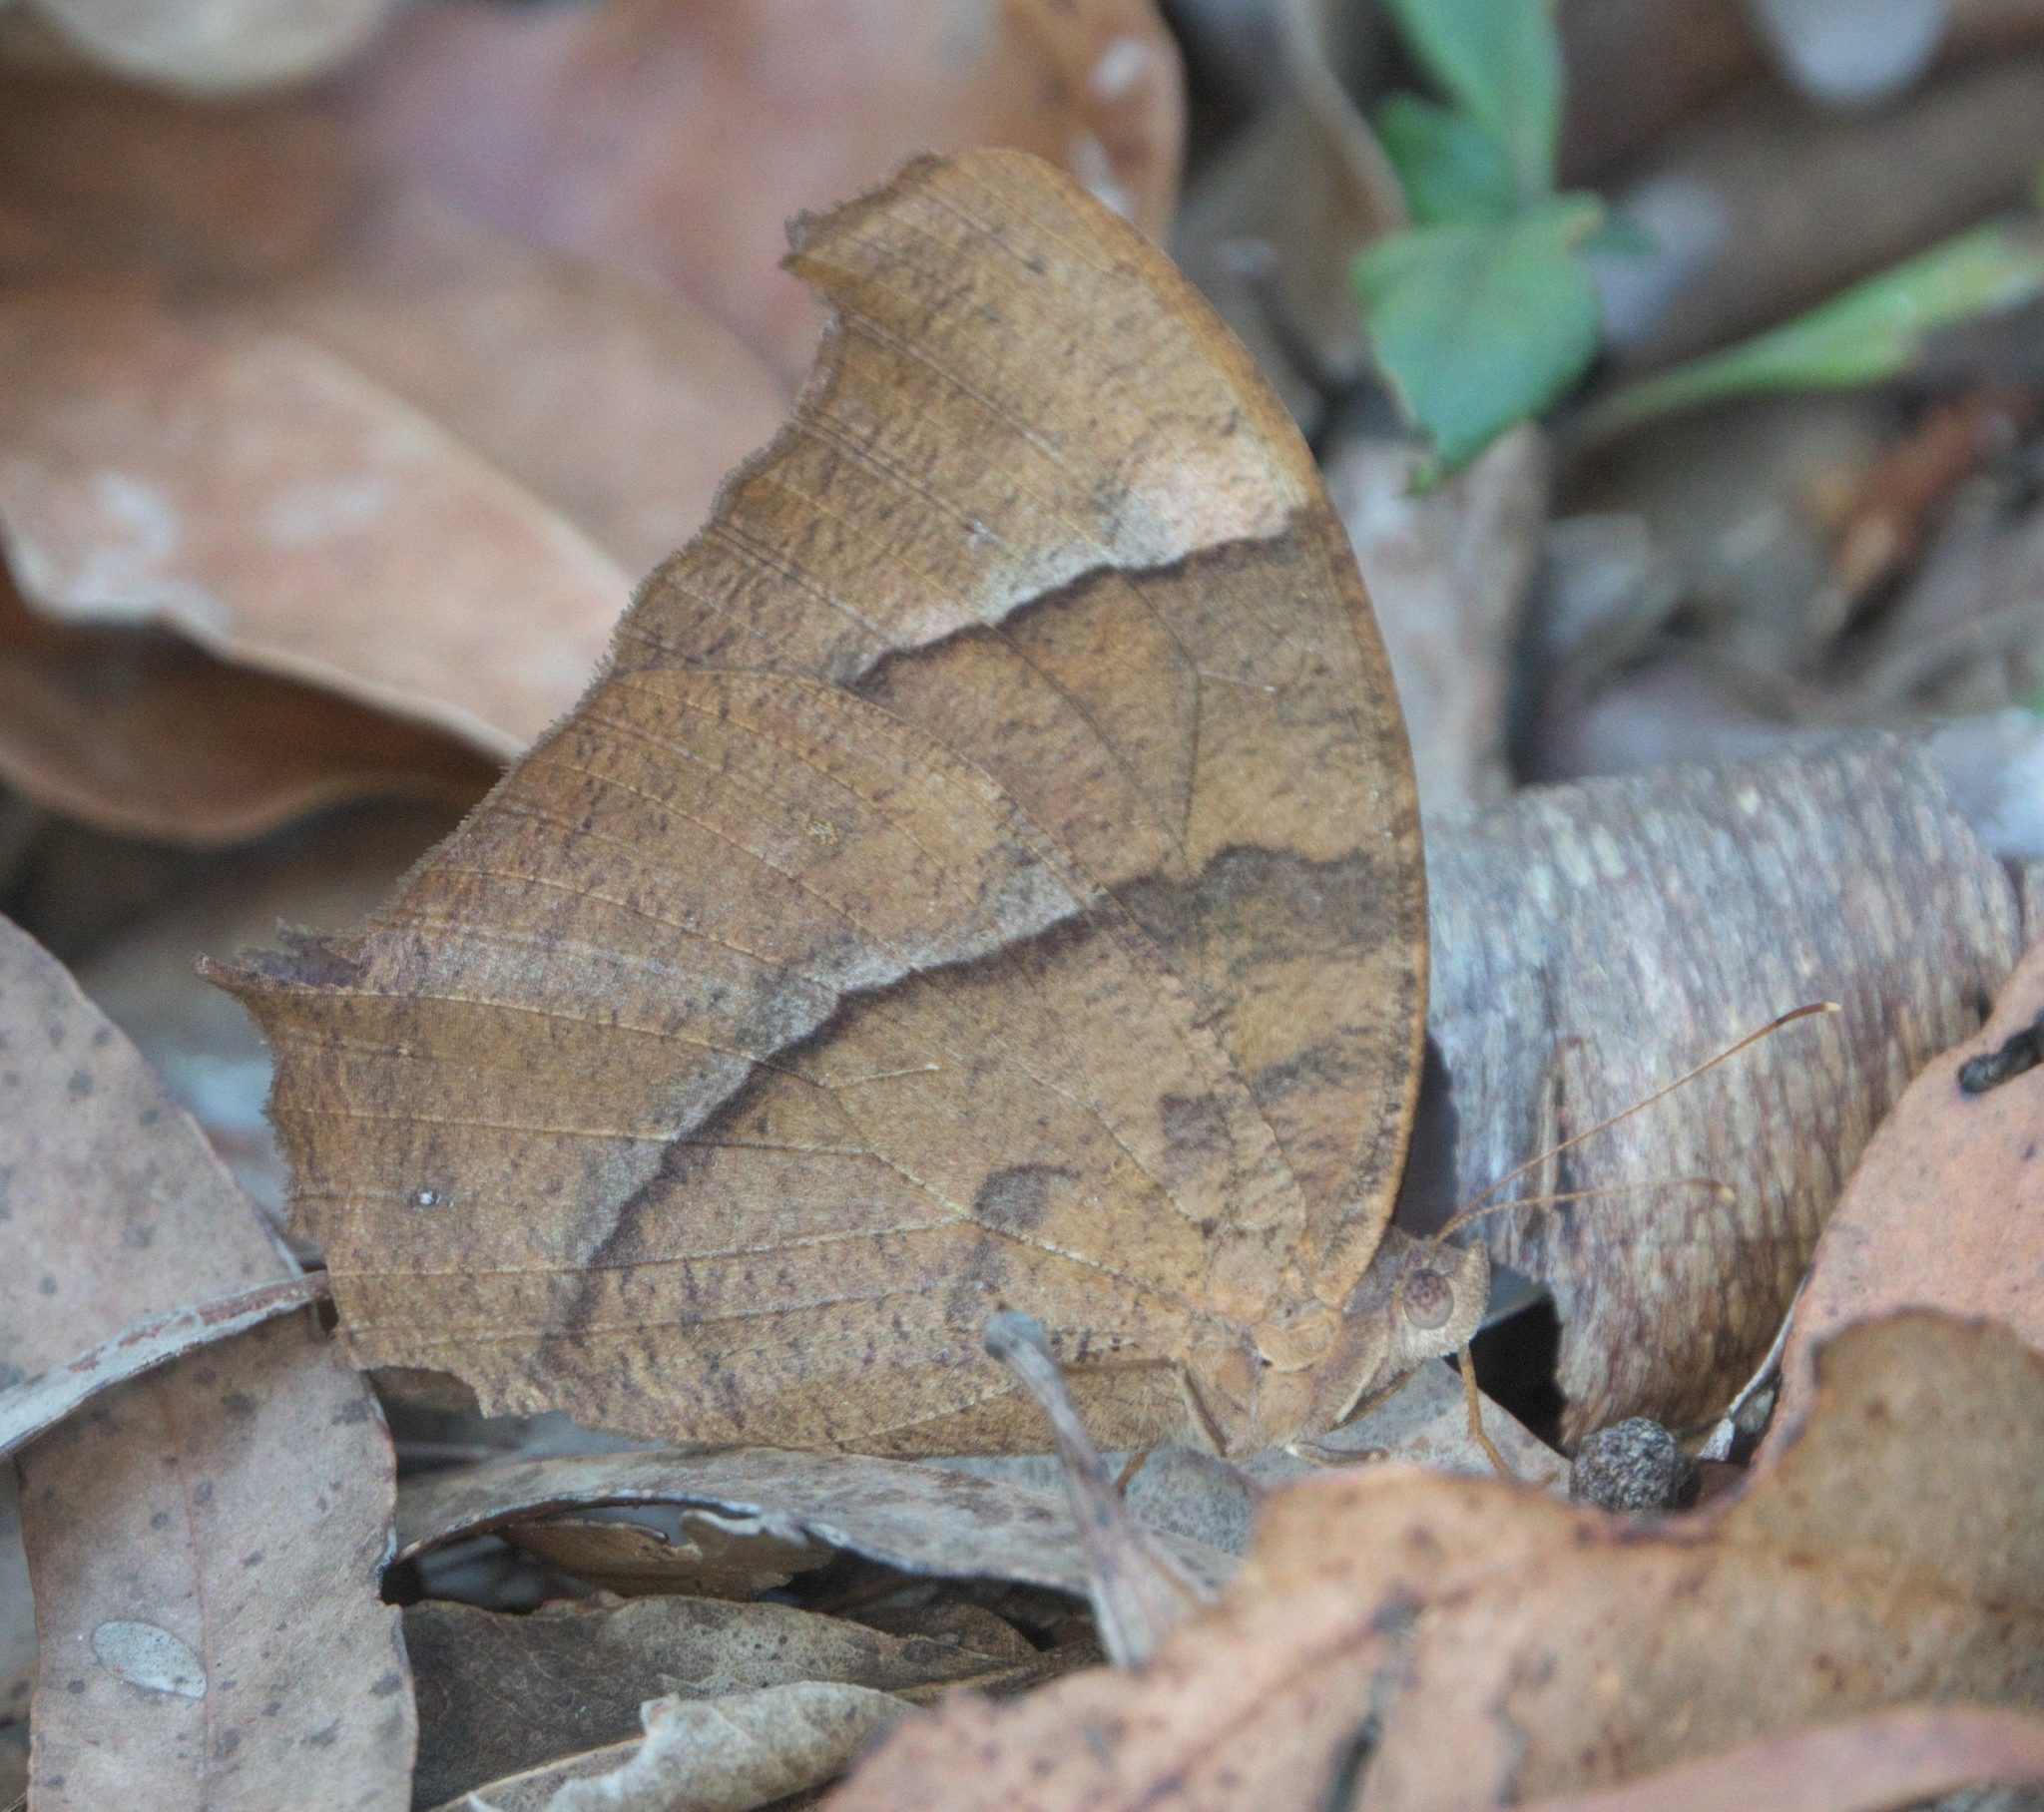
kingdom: Animalia
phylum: Arthropoda
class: Insecta
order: Lepidoptera
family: Nymphalidae
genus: Melanitis
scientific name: Melanitis leda
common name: Twilight brown
